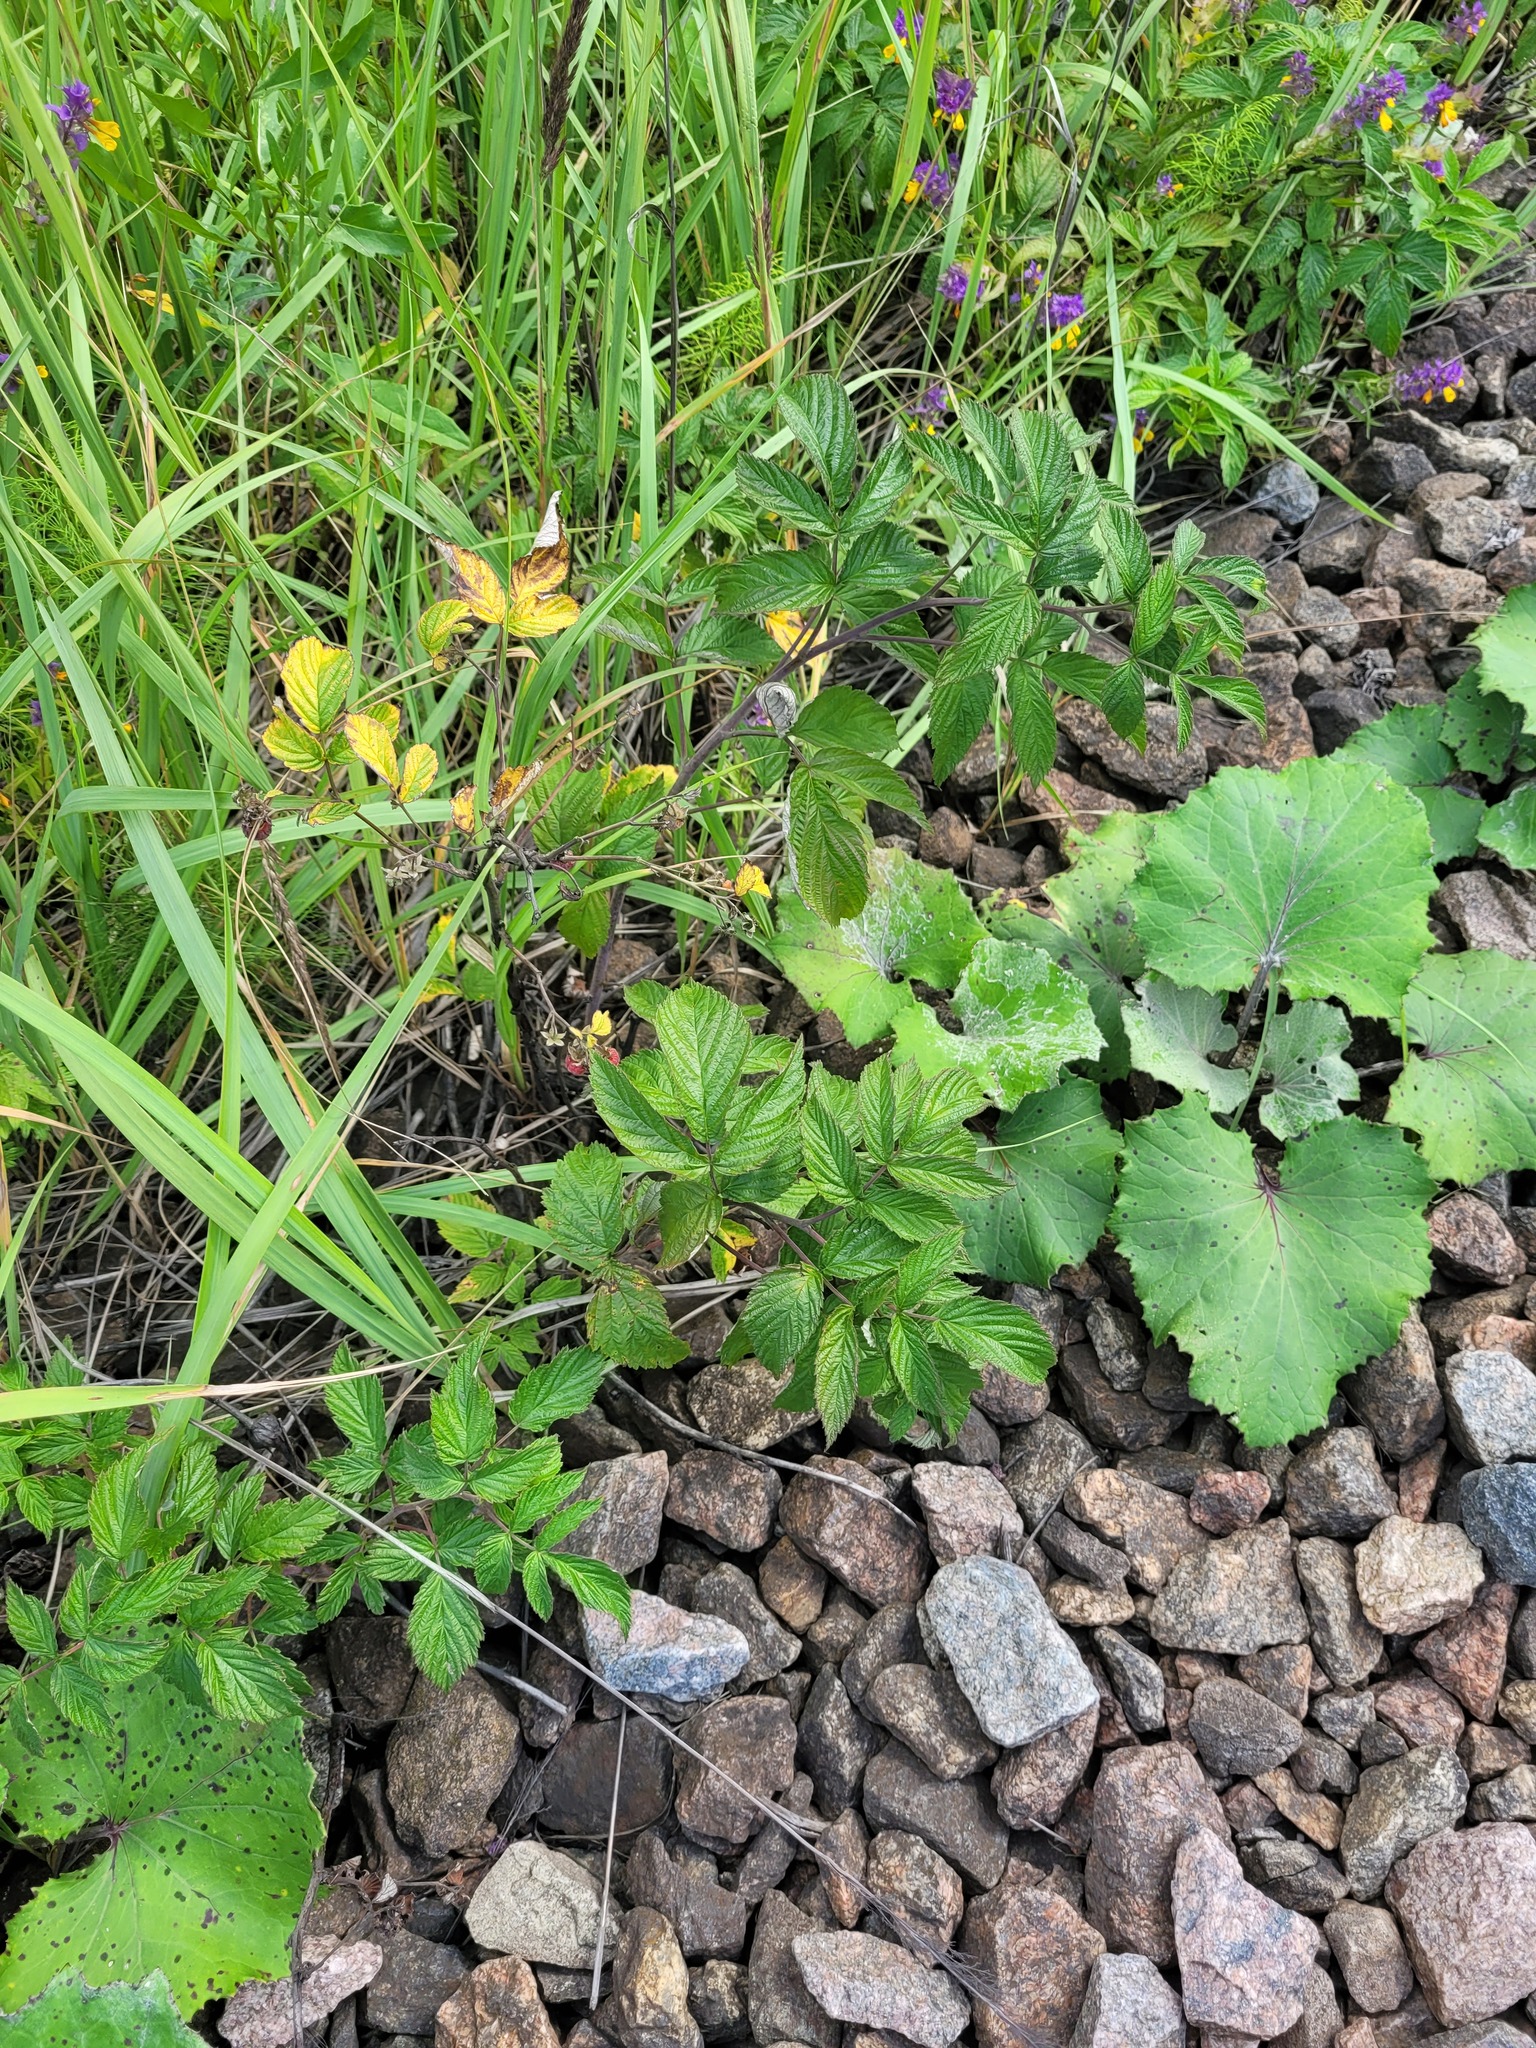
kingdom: Plantae
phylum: Tracheophyta
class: Magnoliopsida
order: Rosales
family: Rosaceae
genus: Rubus
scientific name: Rubus idaeus
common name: Raspberry
